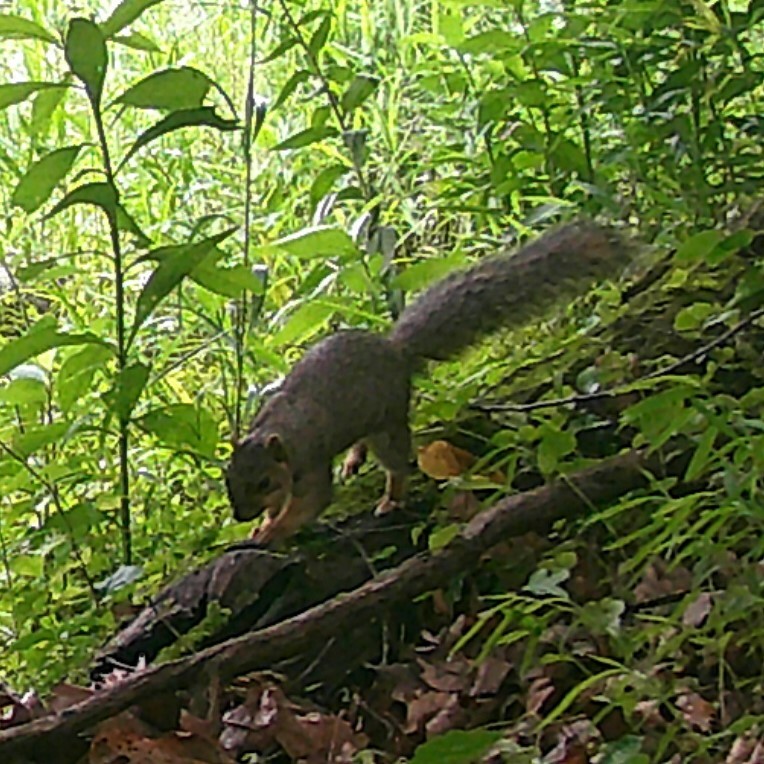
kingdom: Animalia
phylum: Chordata
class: Mammalia
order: Rodentia
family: Sciuridae
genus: Sciurus
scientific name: Sciurus niger
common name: Fox squirrel
